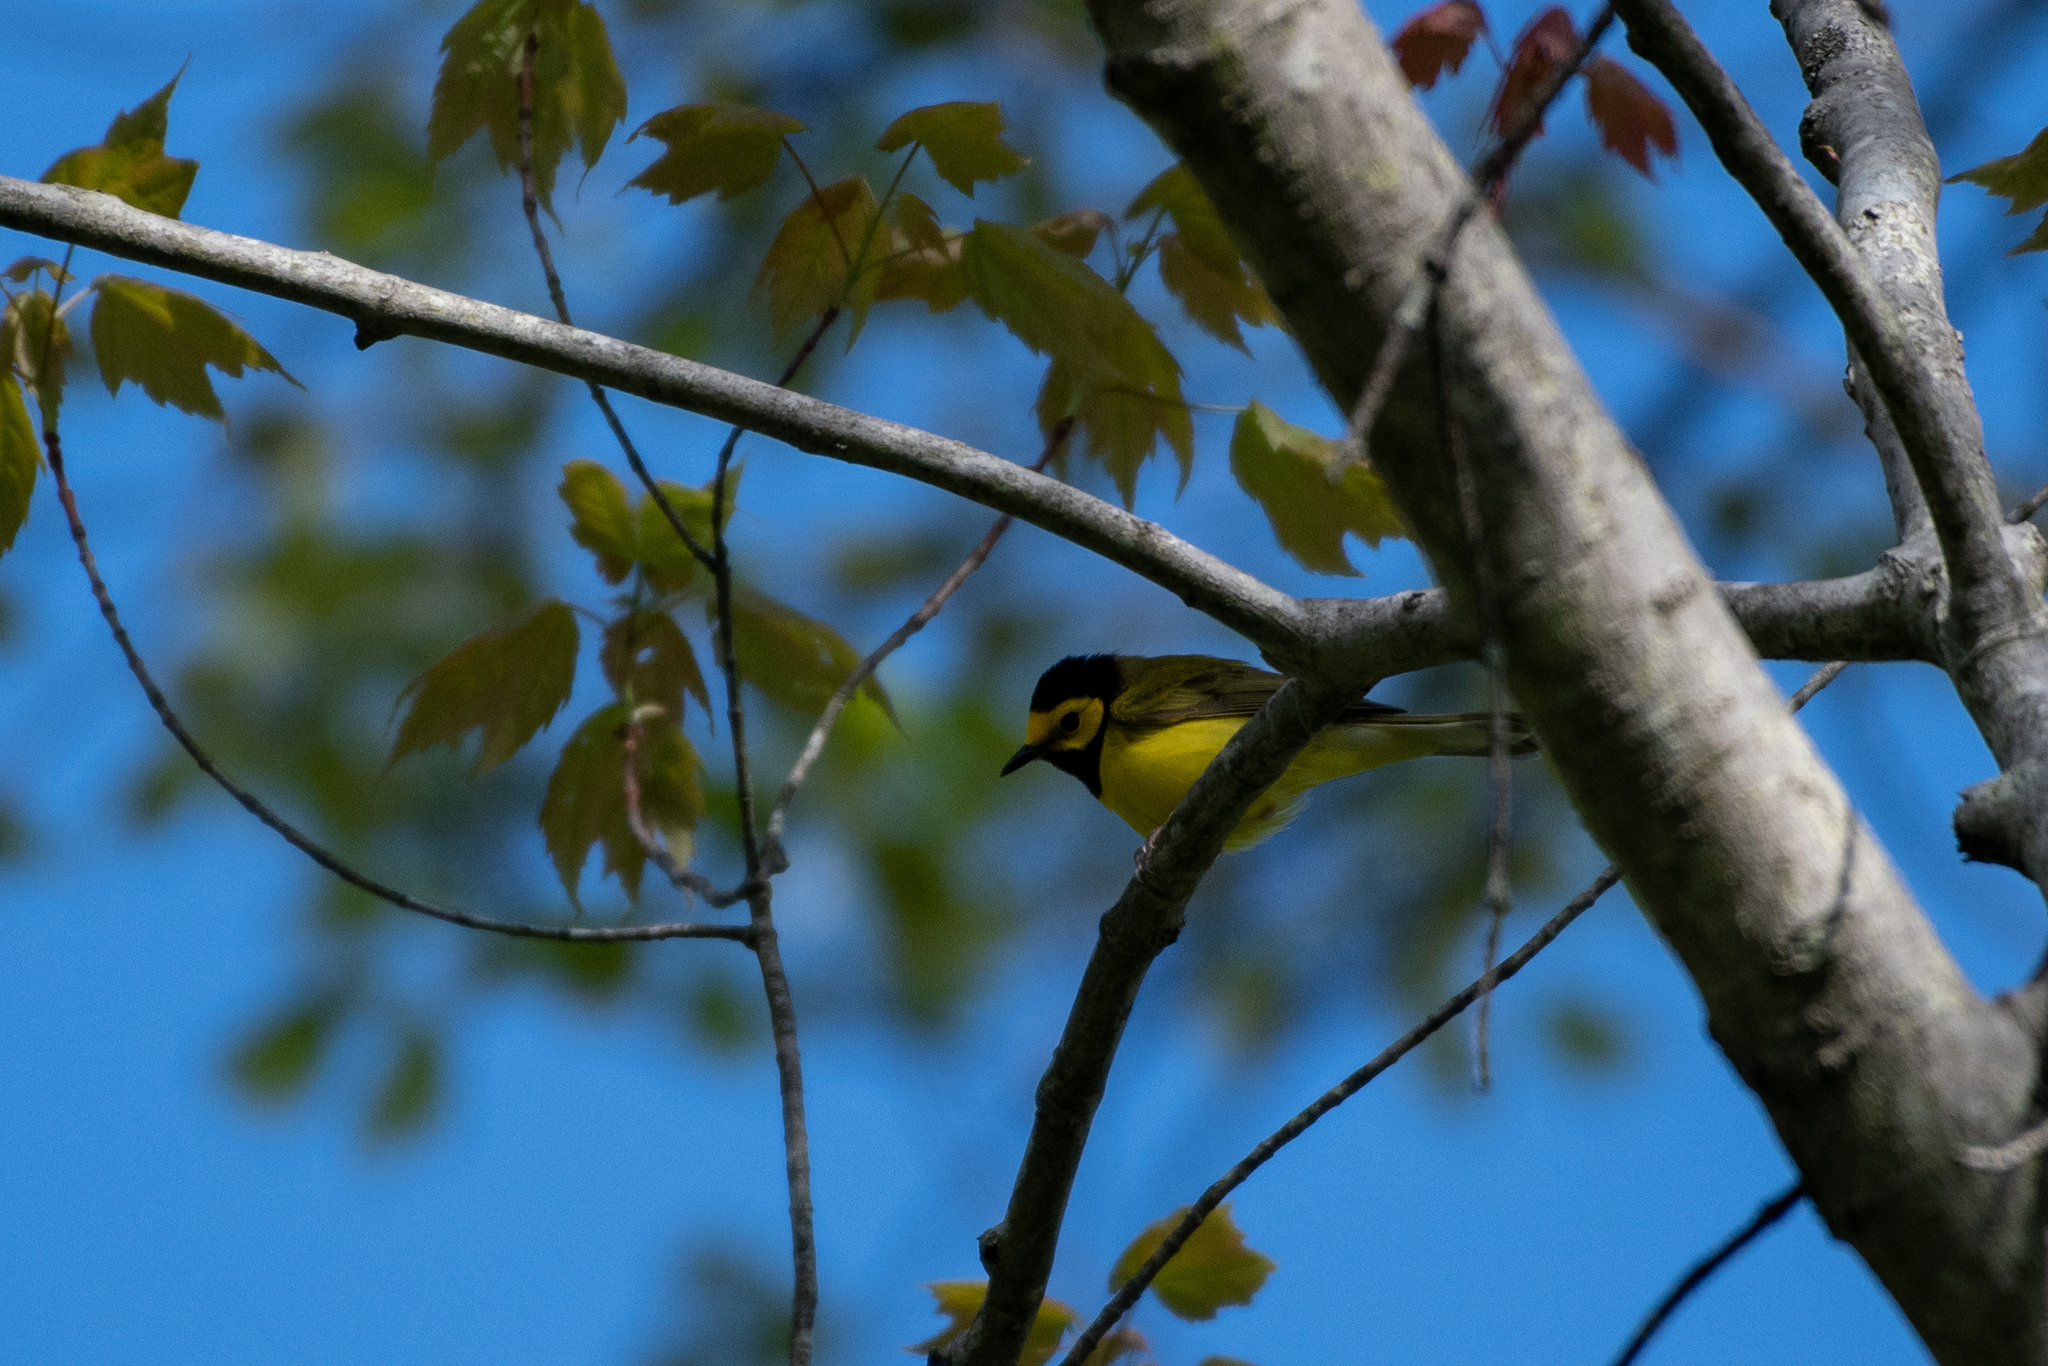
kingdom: Animalia
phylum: Chordata
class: Aves
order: Passeriformes
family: Parulidae
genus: Setophaga
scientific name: Setophaga citrina
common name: Hooded warbler
